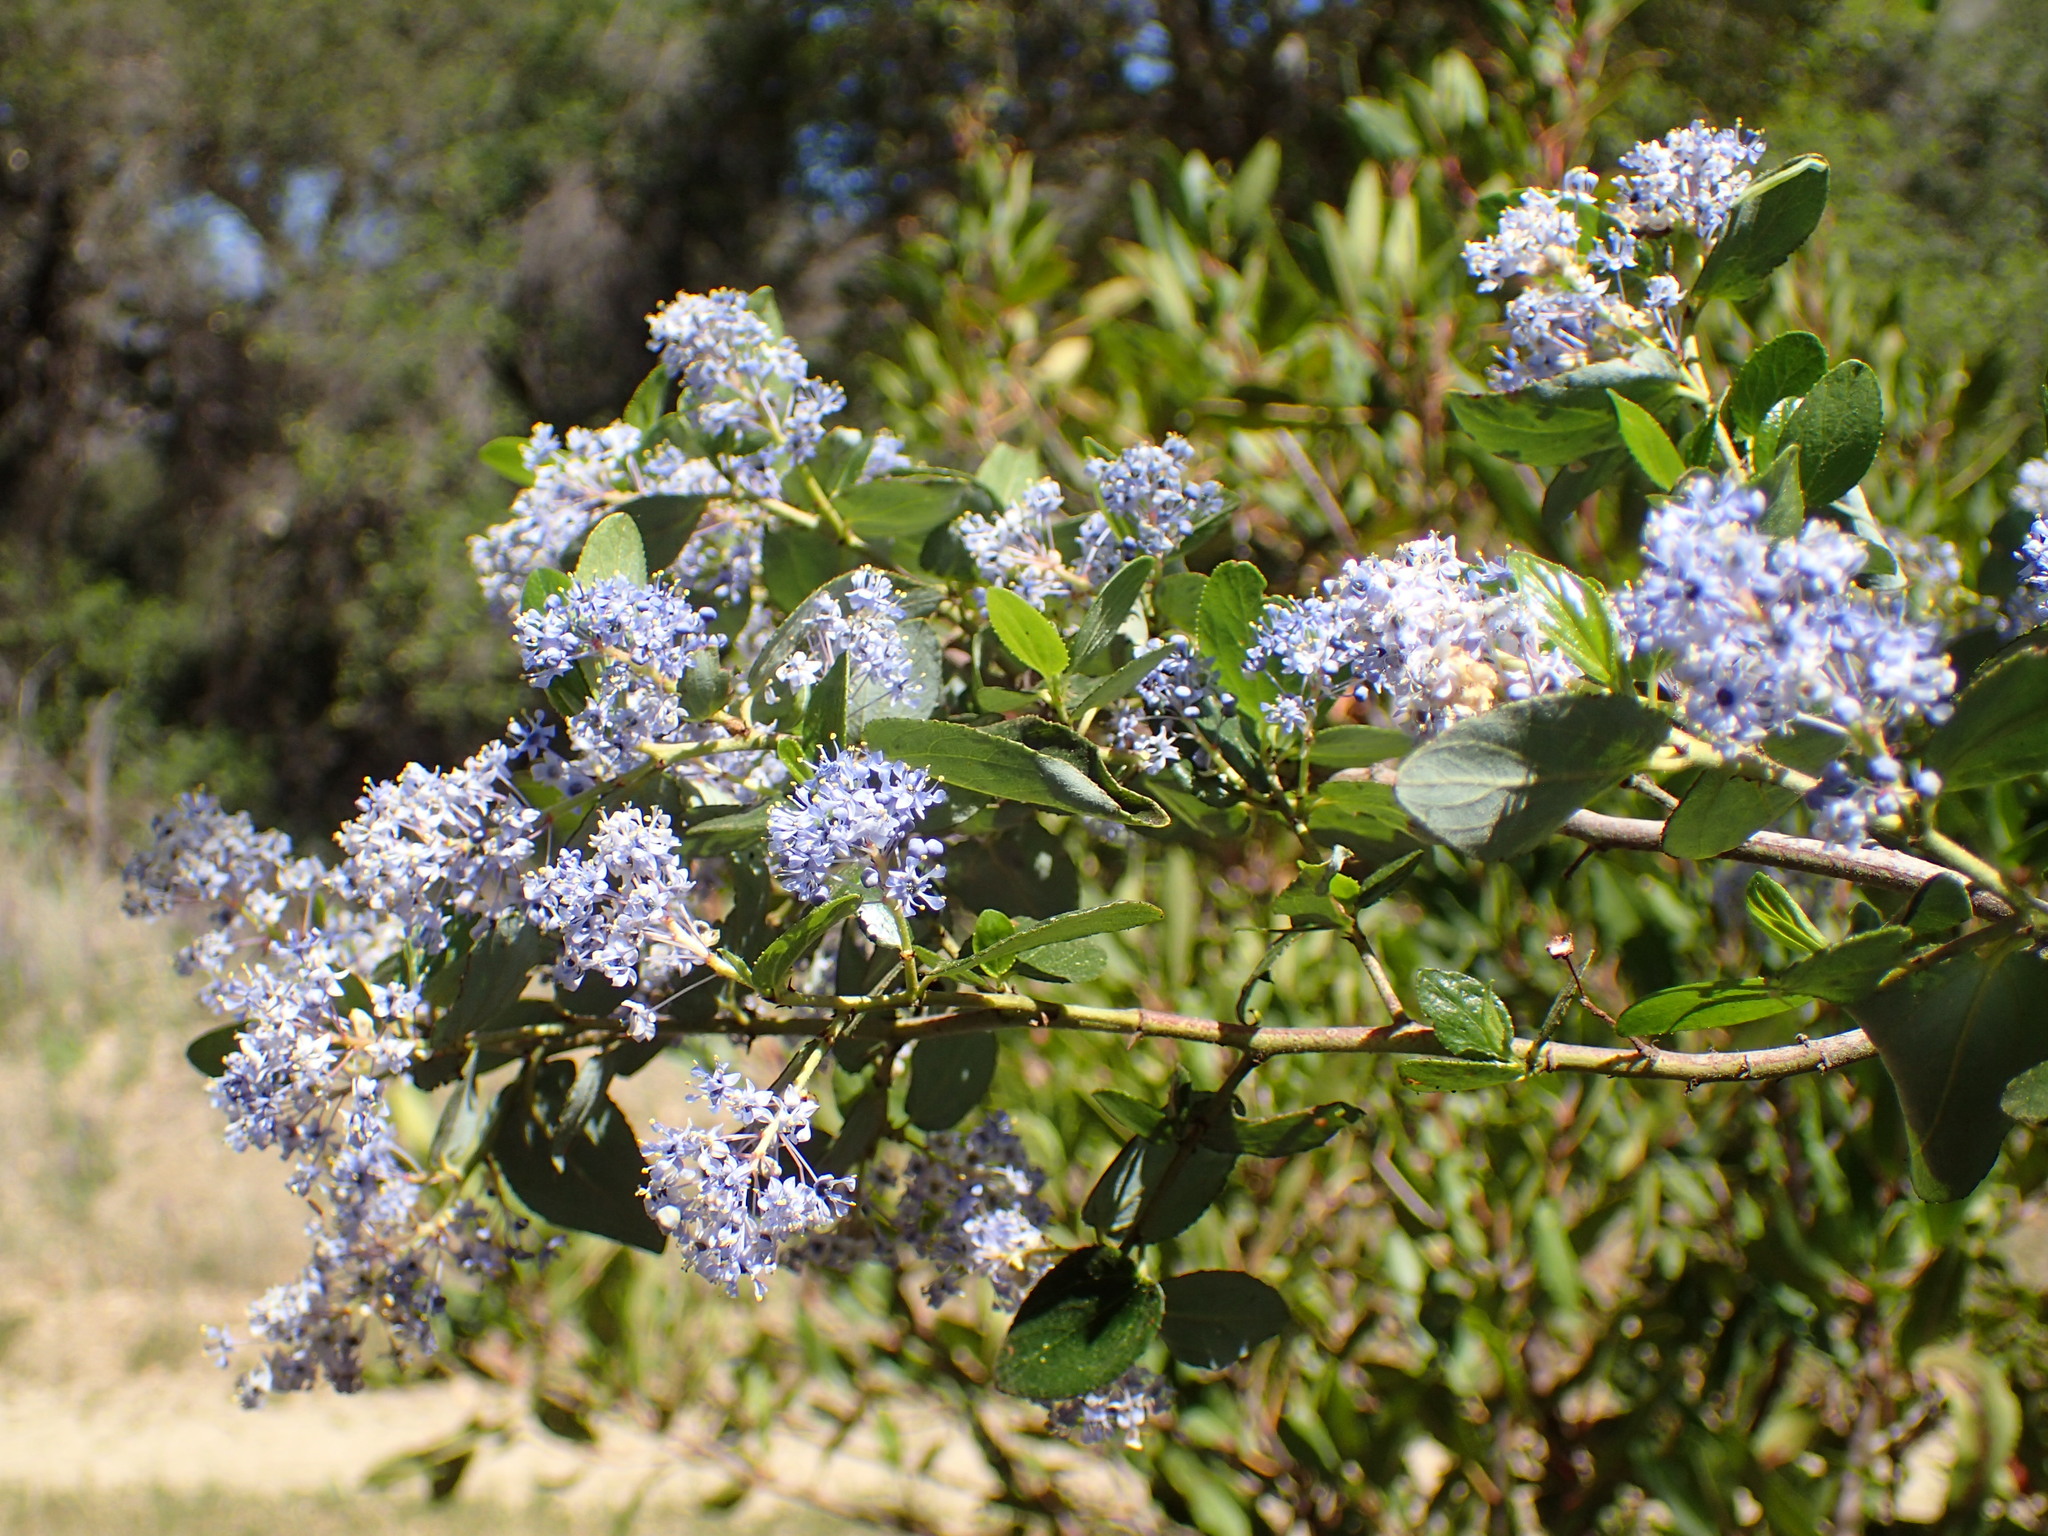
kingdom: Plantae
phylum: Tracheophyta
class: Magnoliopsida
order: Rosales
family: Rhamnaceae
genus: Ceanothus
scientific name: Ceanothus oliganthus
